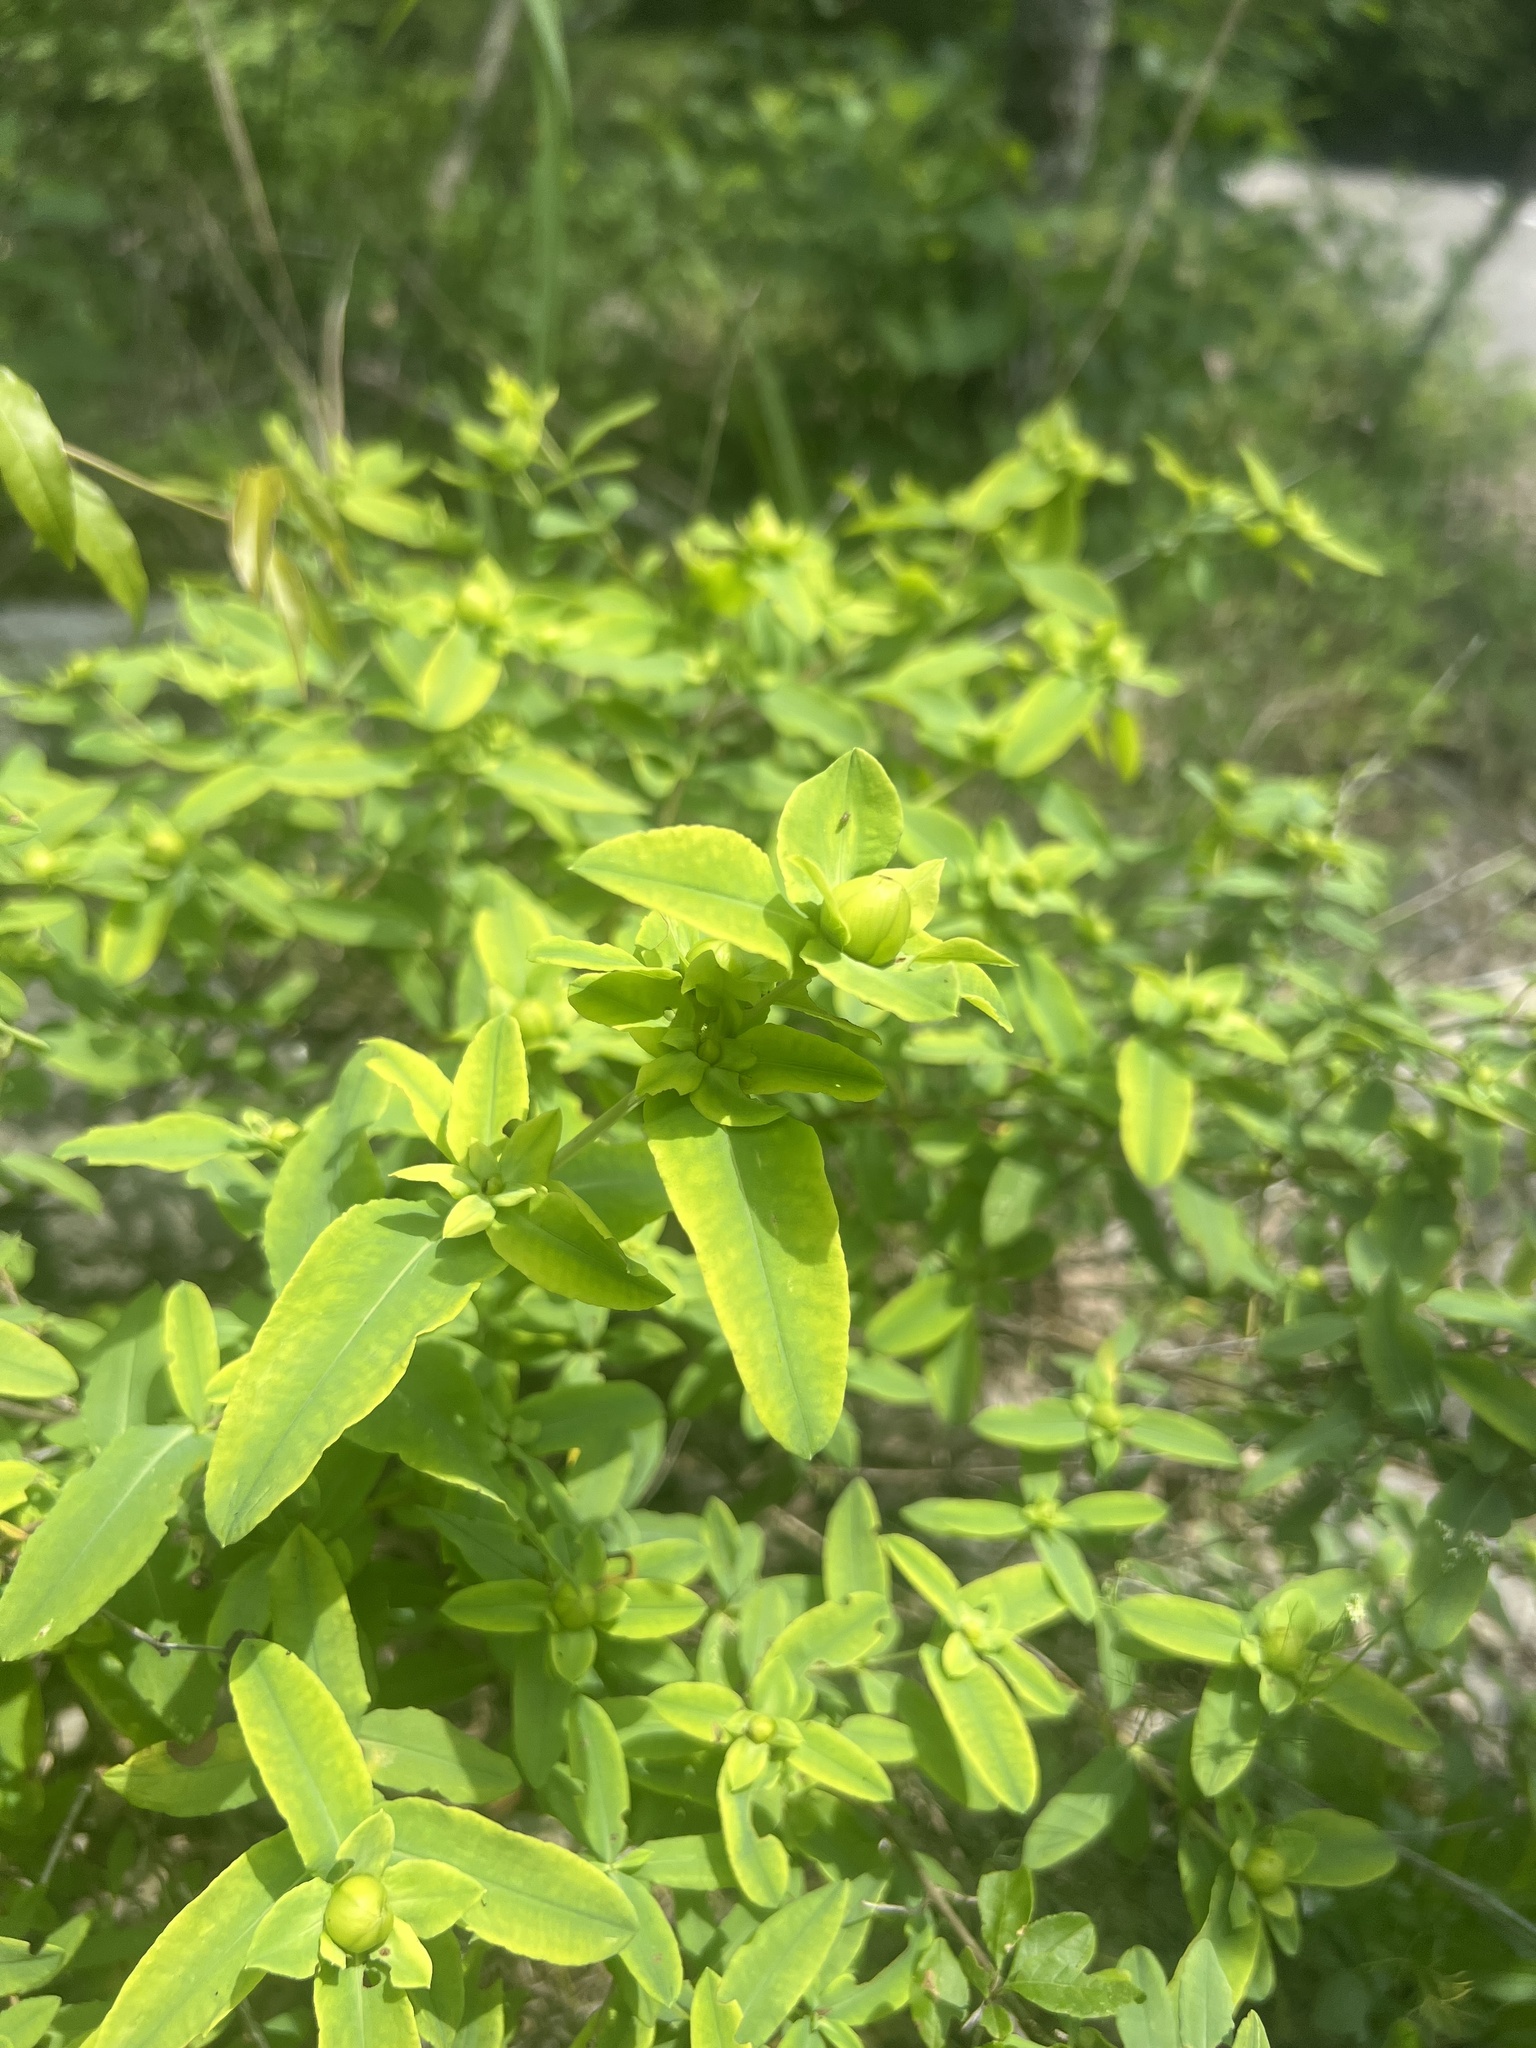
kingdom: Plantae
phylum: Tracheophyta
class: Magnoliopsida
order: Malpighiales
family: Hypericaceae
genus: Hypericum
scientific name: Hypericum frondosum
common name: Golden st. john's-wort
